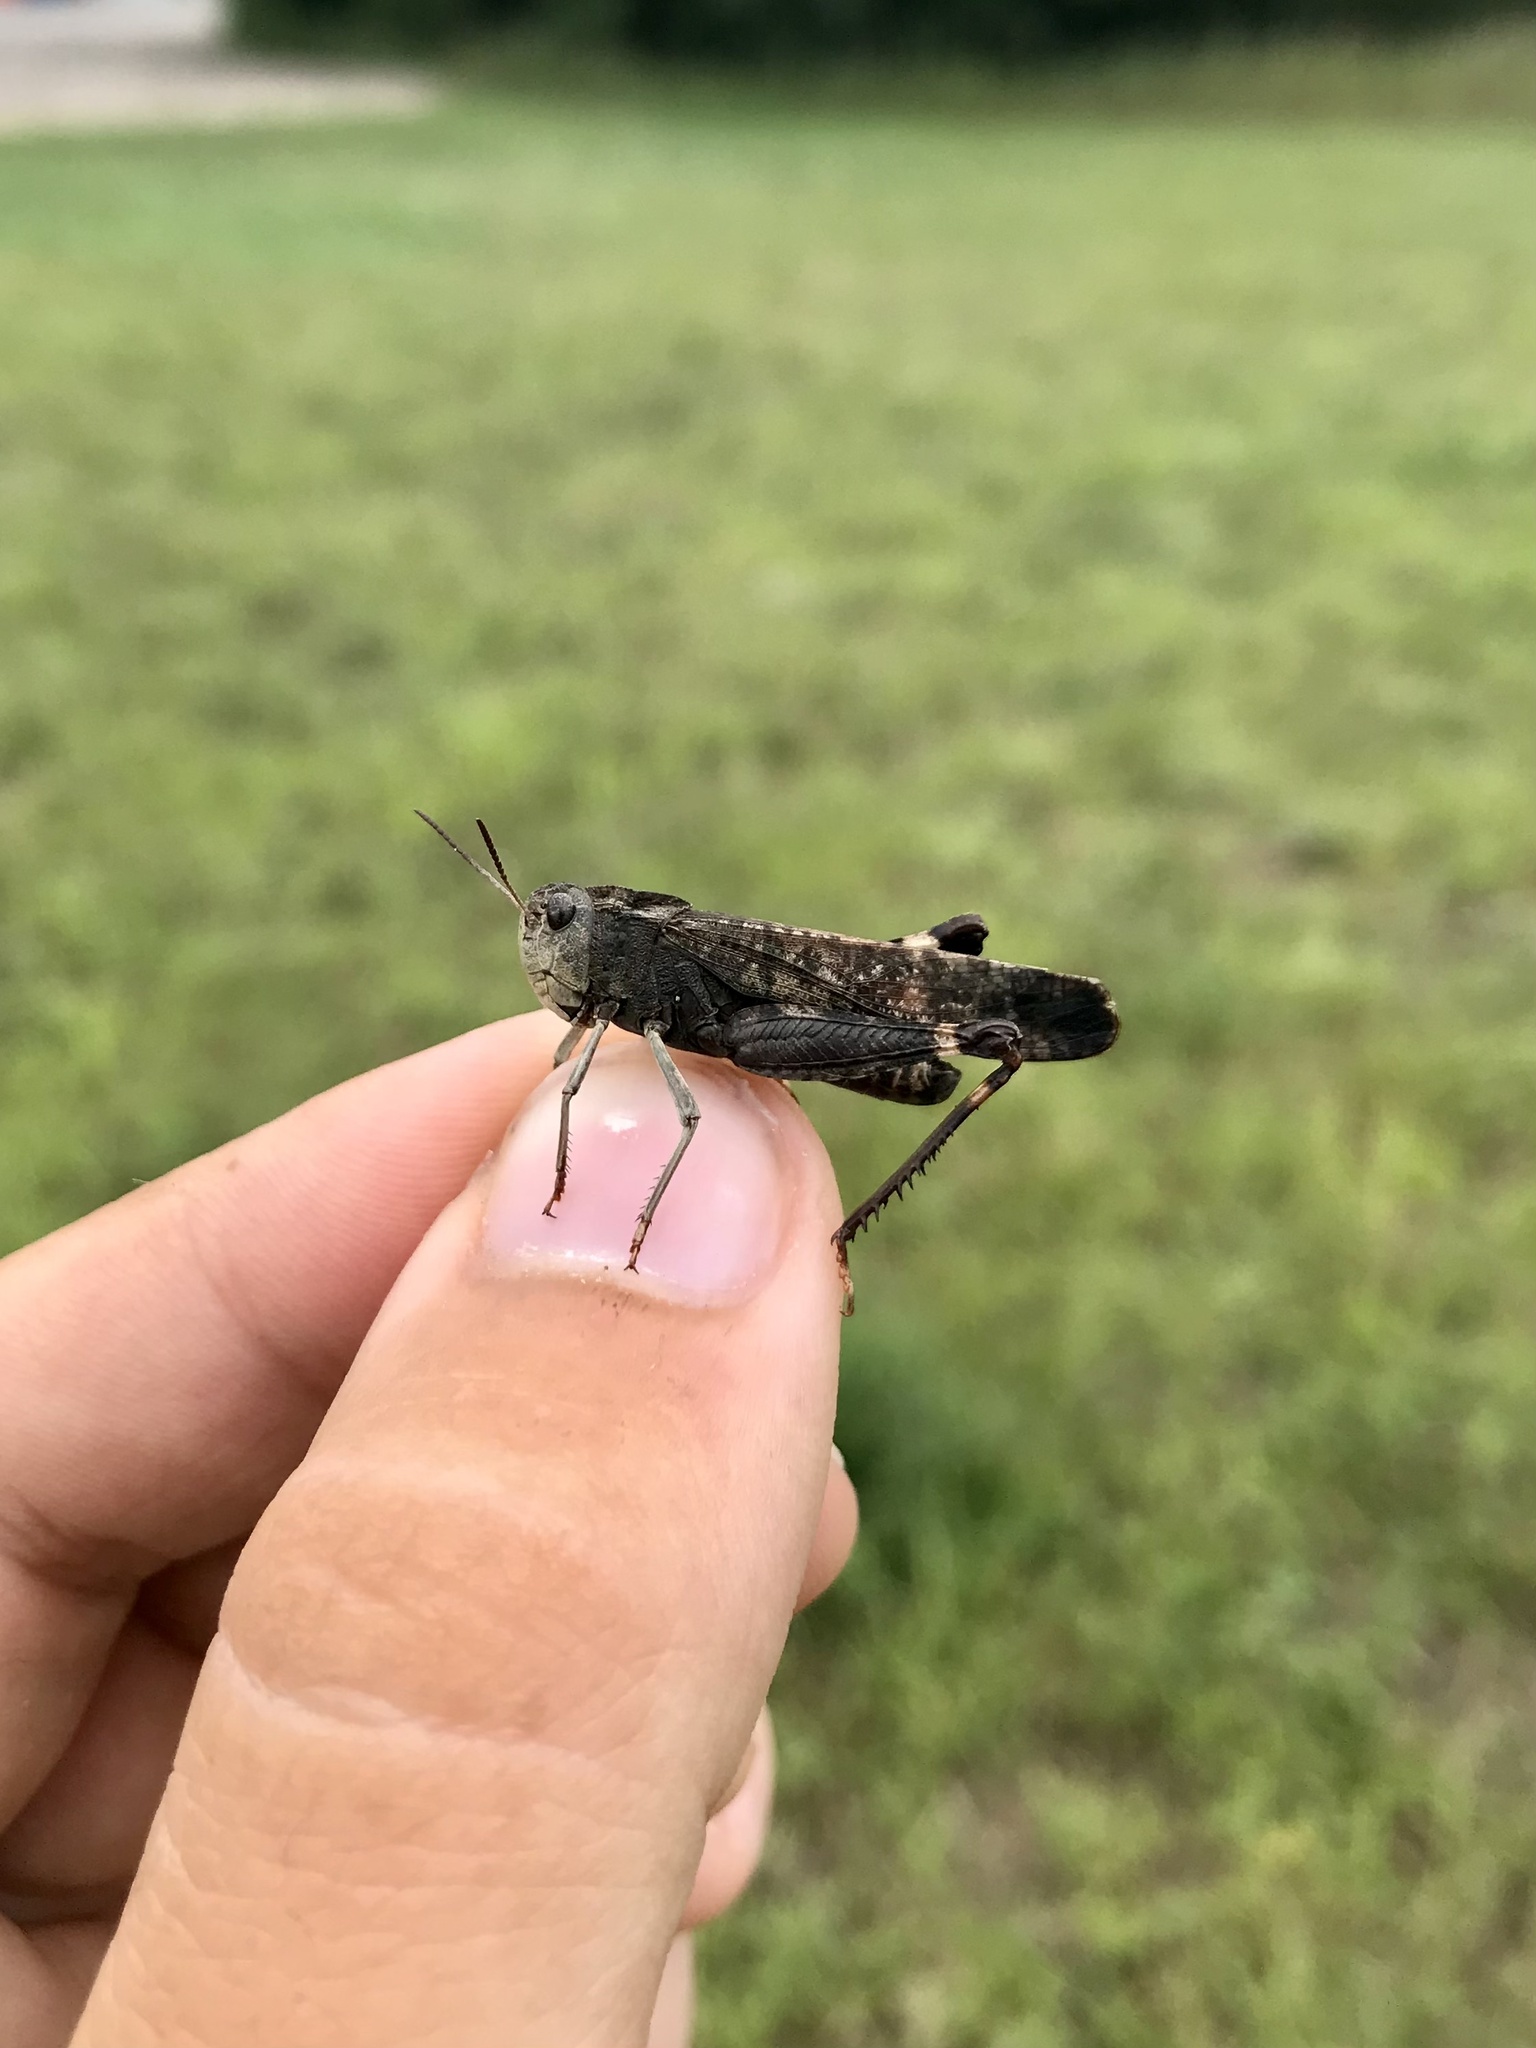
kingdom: Animalia
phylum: Arthropoda
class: Insecta
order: Orthoptera
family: Acrididae
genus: Arphia
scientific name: Arphia pseudo-nietana
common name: Red-winged grasshopper
